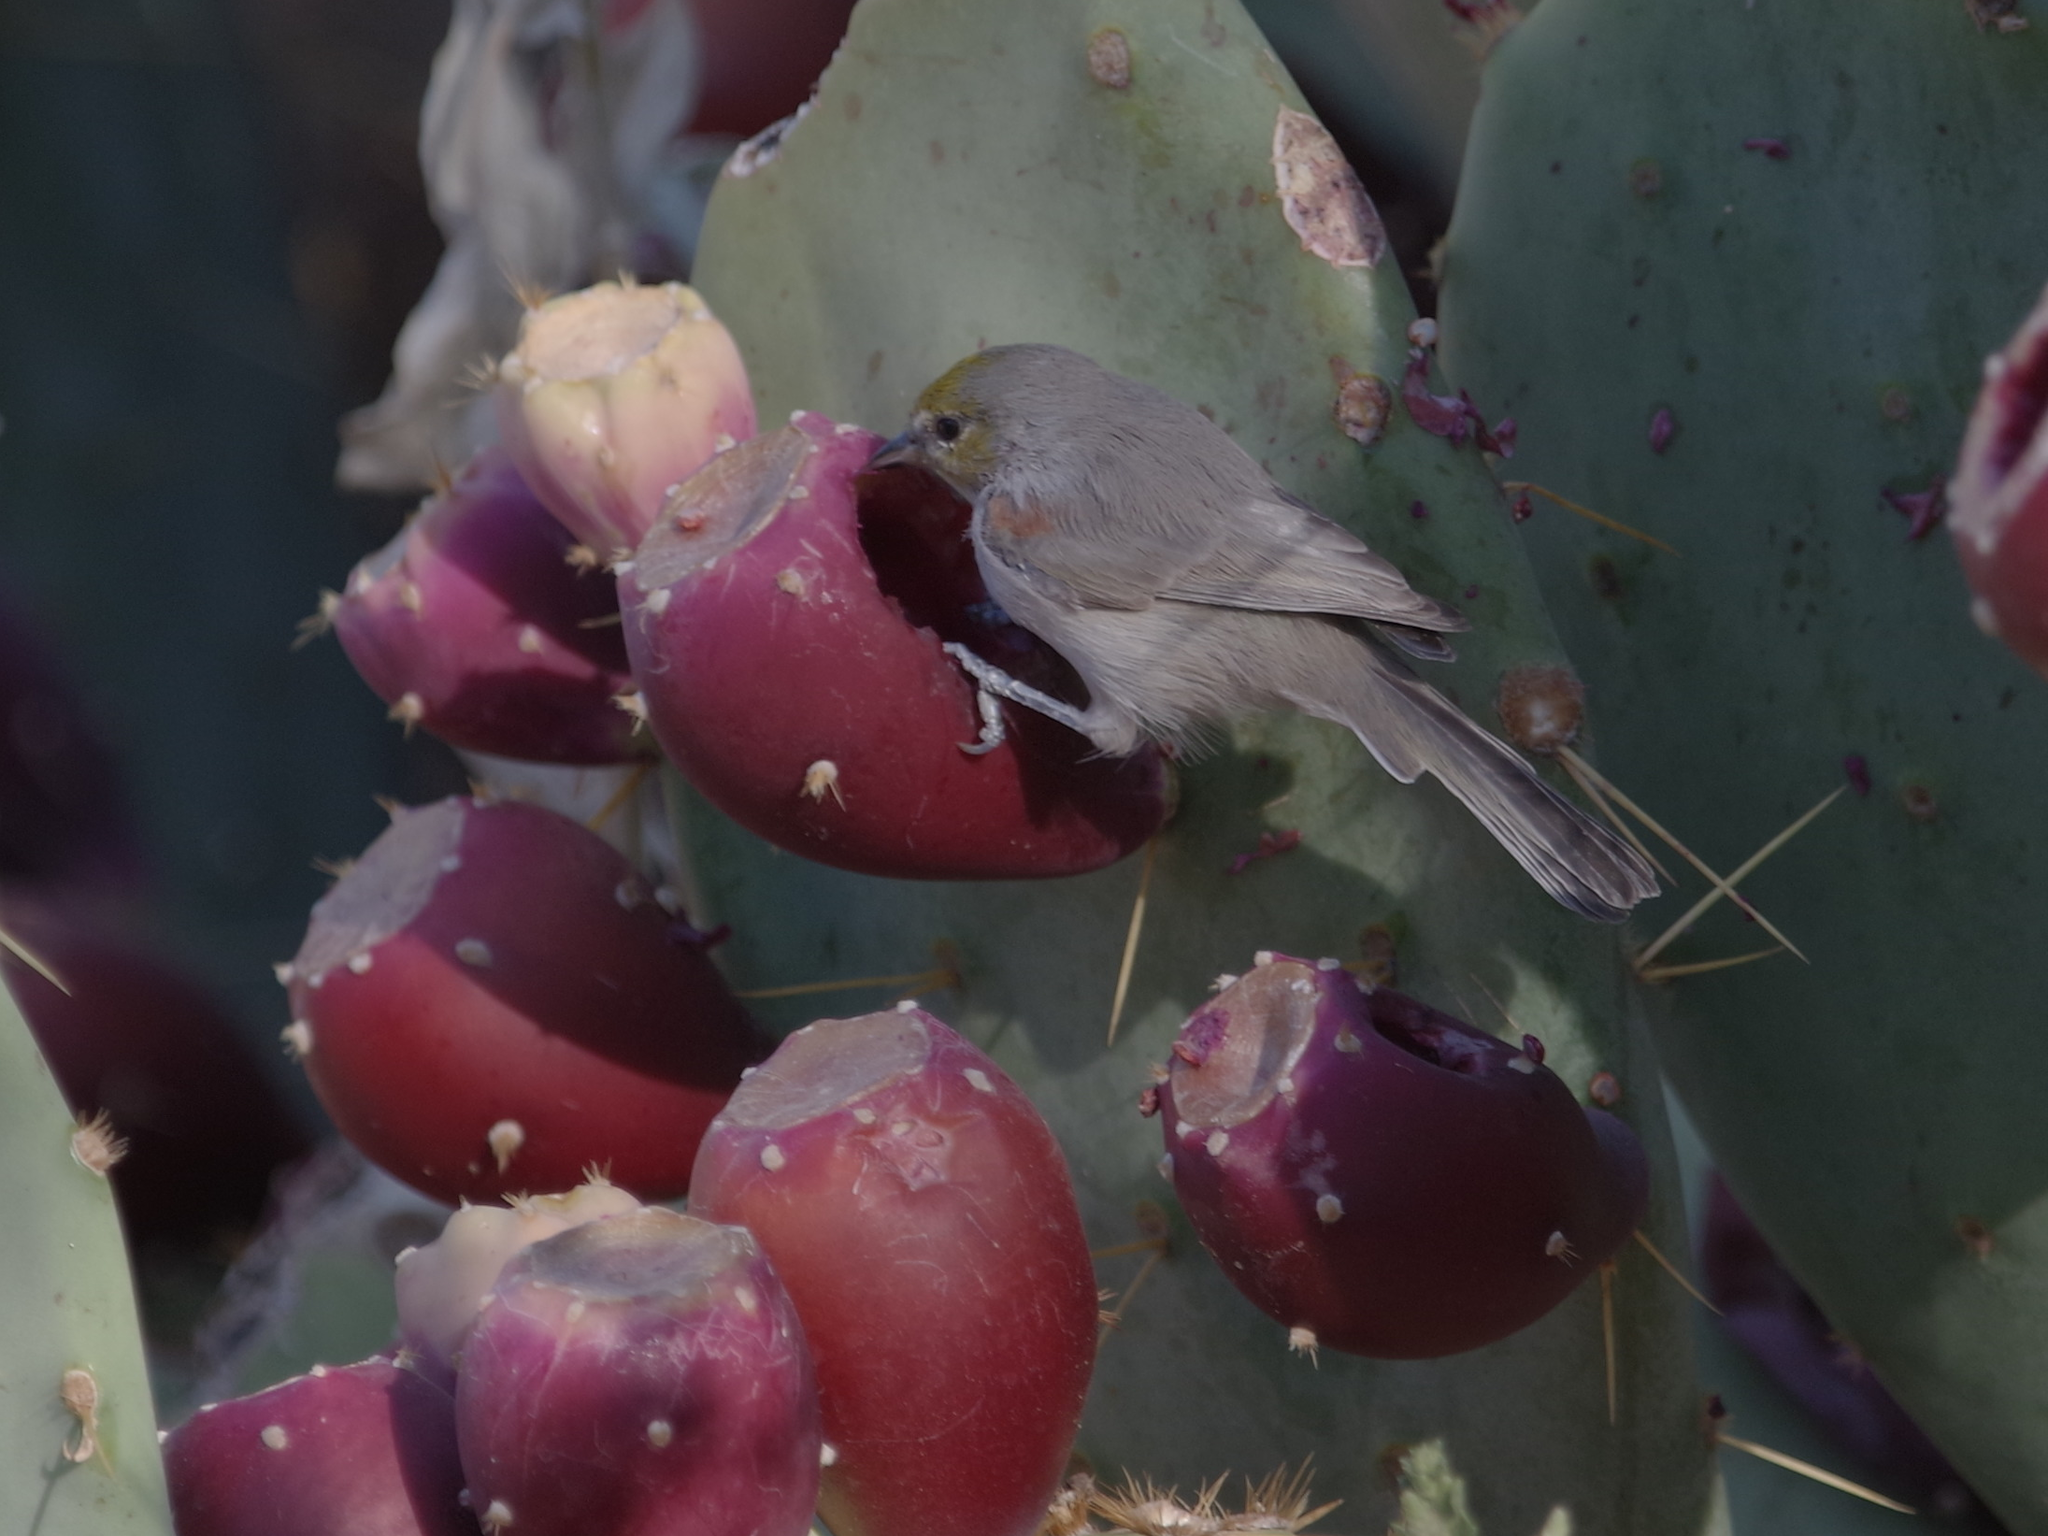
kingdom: Animalia
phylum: Chordata
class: Aves
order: Passeriformes
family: Remizidae
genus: Auriparus
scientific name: Auriparus flaviceps
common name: Verdin
